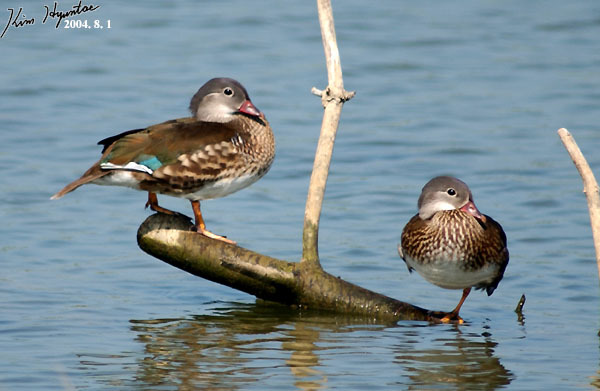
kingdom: Animalia
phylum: Chordata
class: Aves
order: Anseriformes
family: Anatidae
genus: Aix
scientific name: Aix galericulata
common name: Mandarin duck
